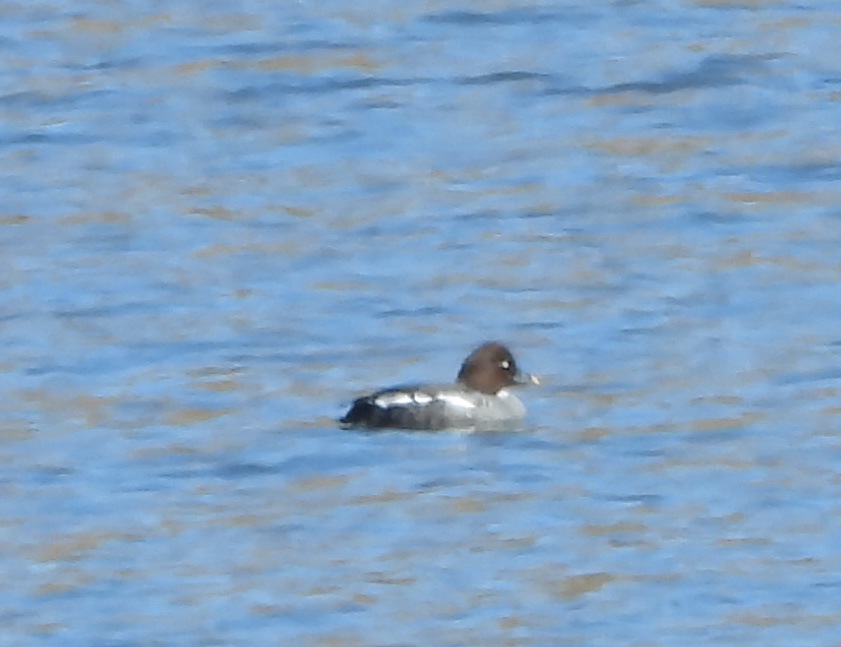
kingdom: Animalia
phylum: Chordata
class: Aves
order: Anseriformes
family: Anatidae
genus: Bucephala
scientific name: Bucephala clangula
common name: Common goldeneye
